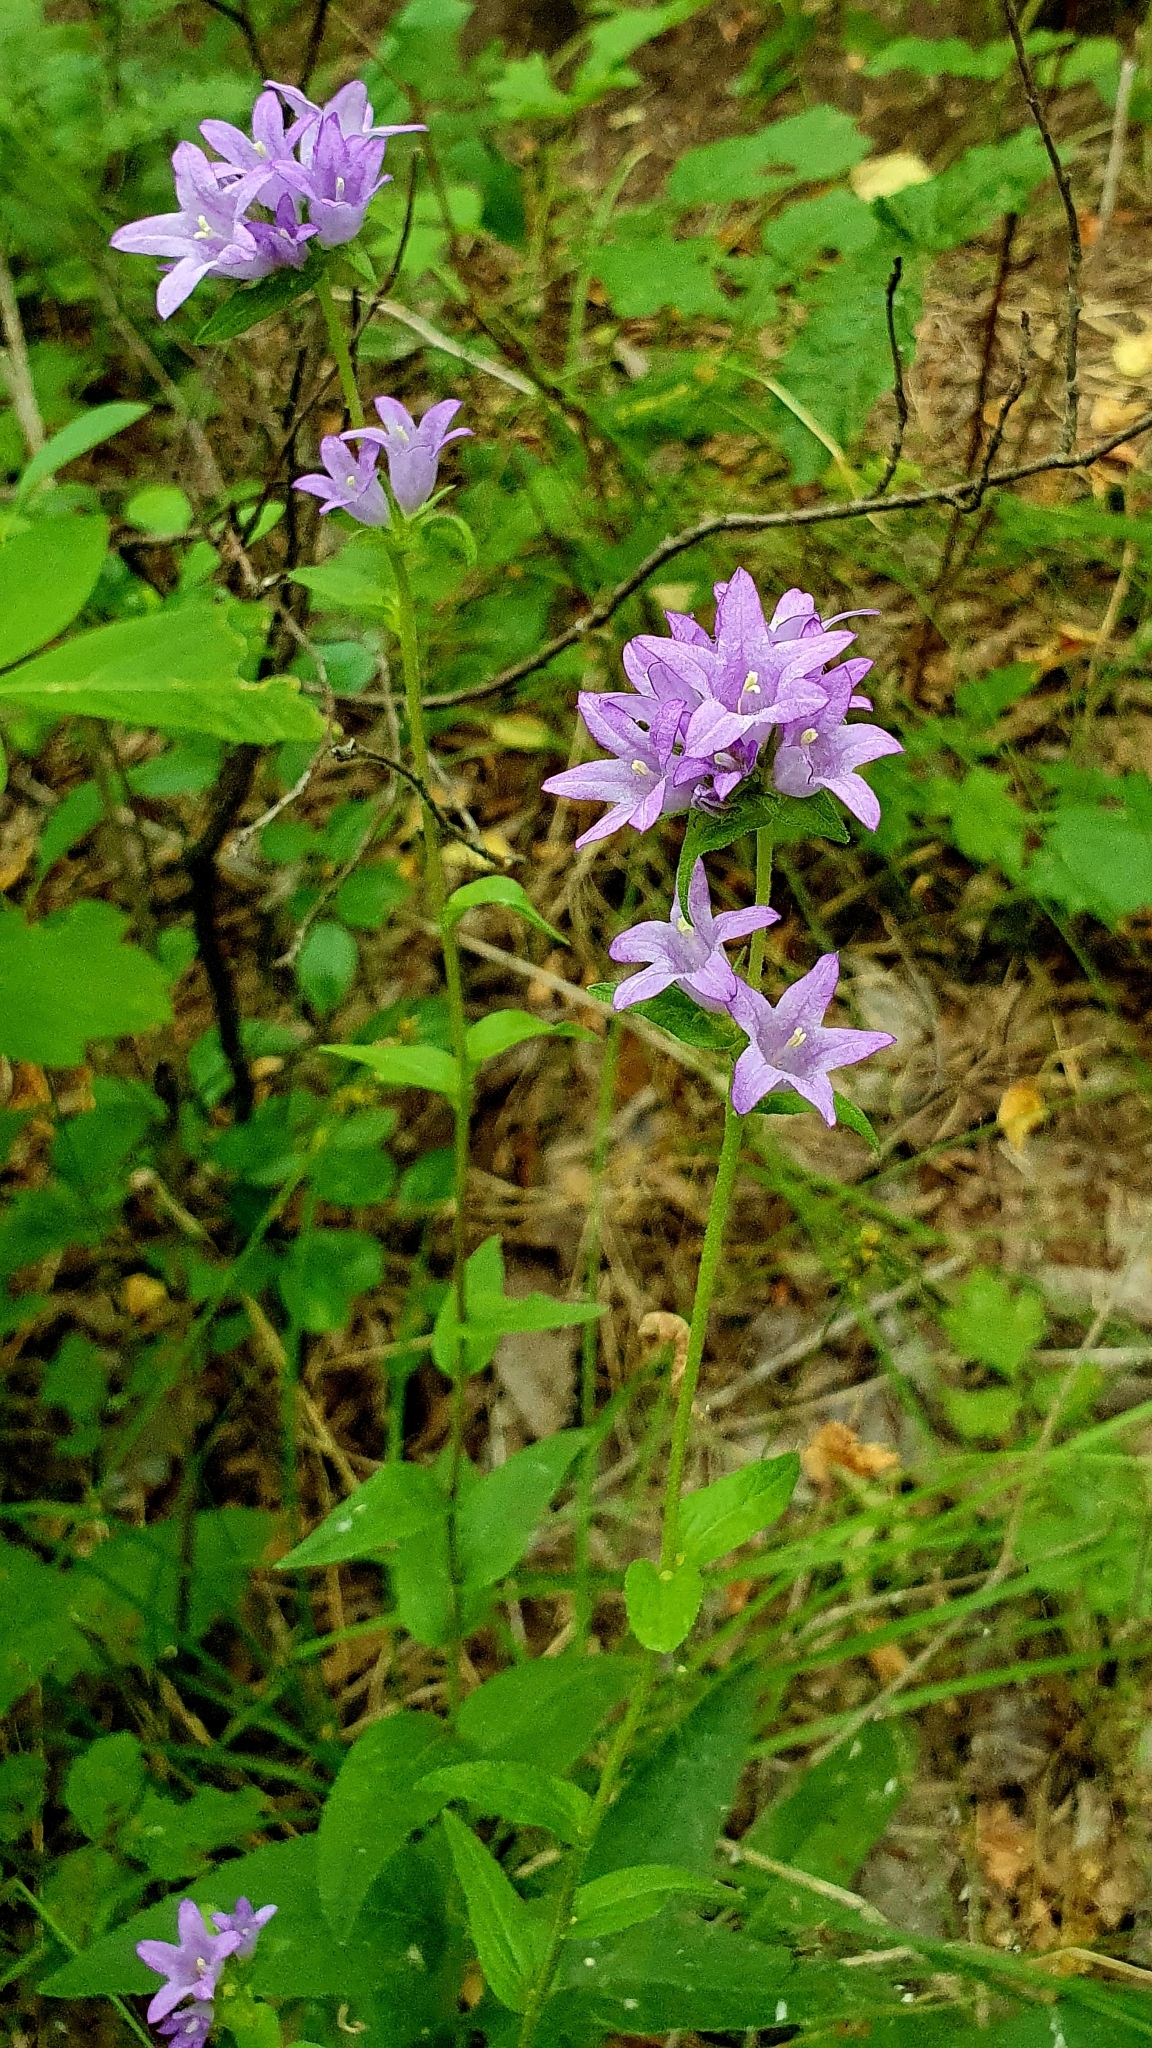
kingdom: Plantae
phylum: Tracheophyta
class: Magnoliopsida
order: Asterales
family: Campanulaceae
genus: Campanula
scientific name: Campanula glomerata
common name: Clustered bellflower
